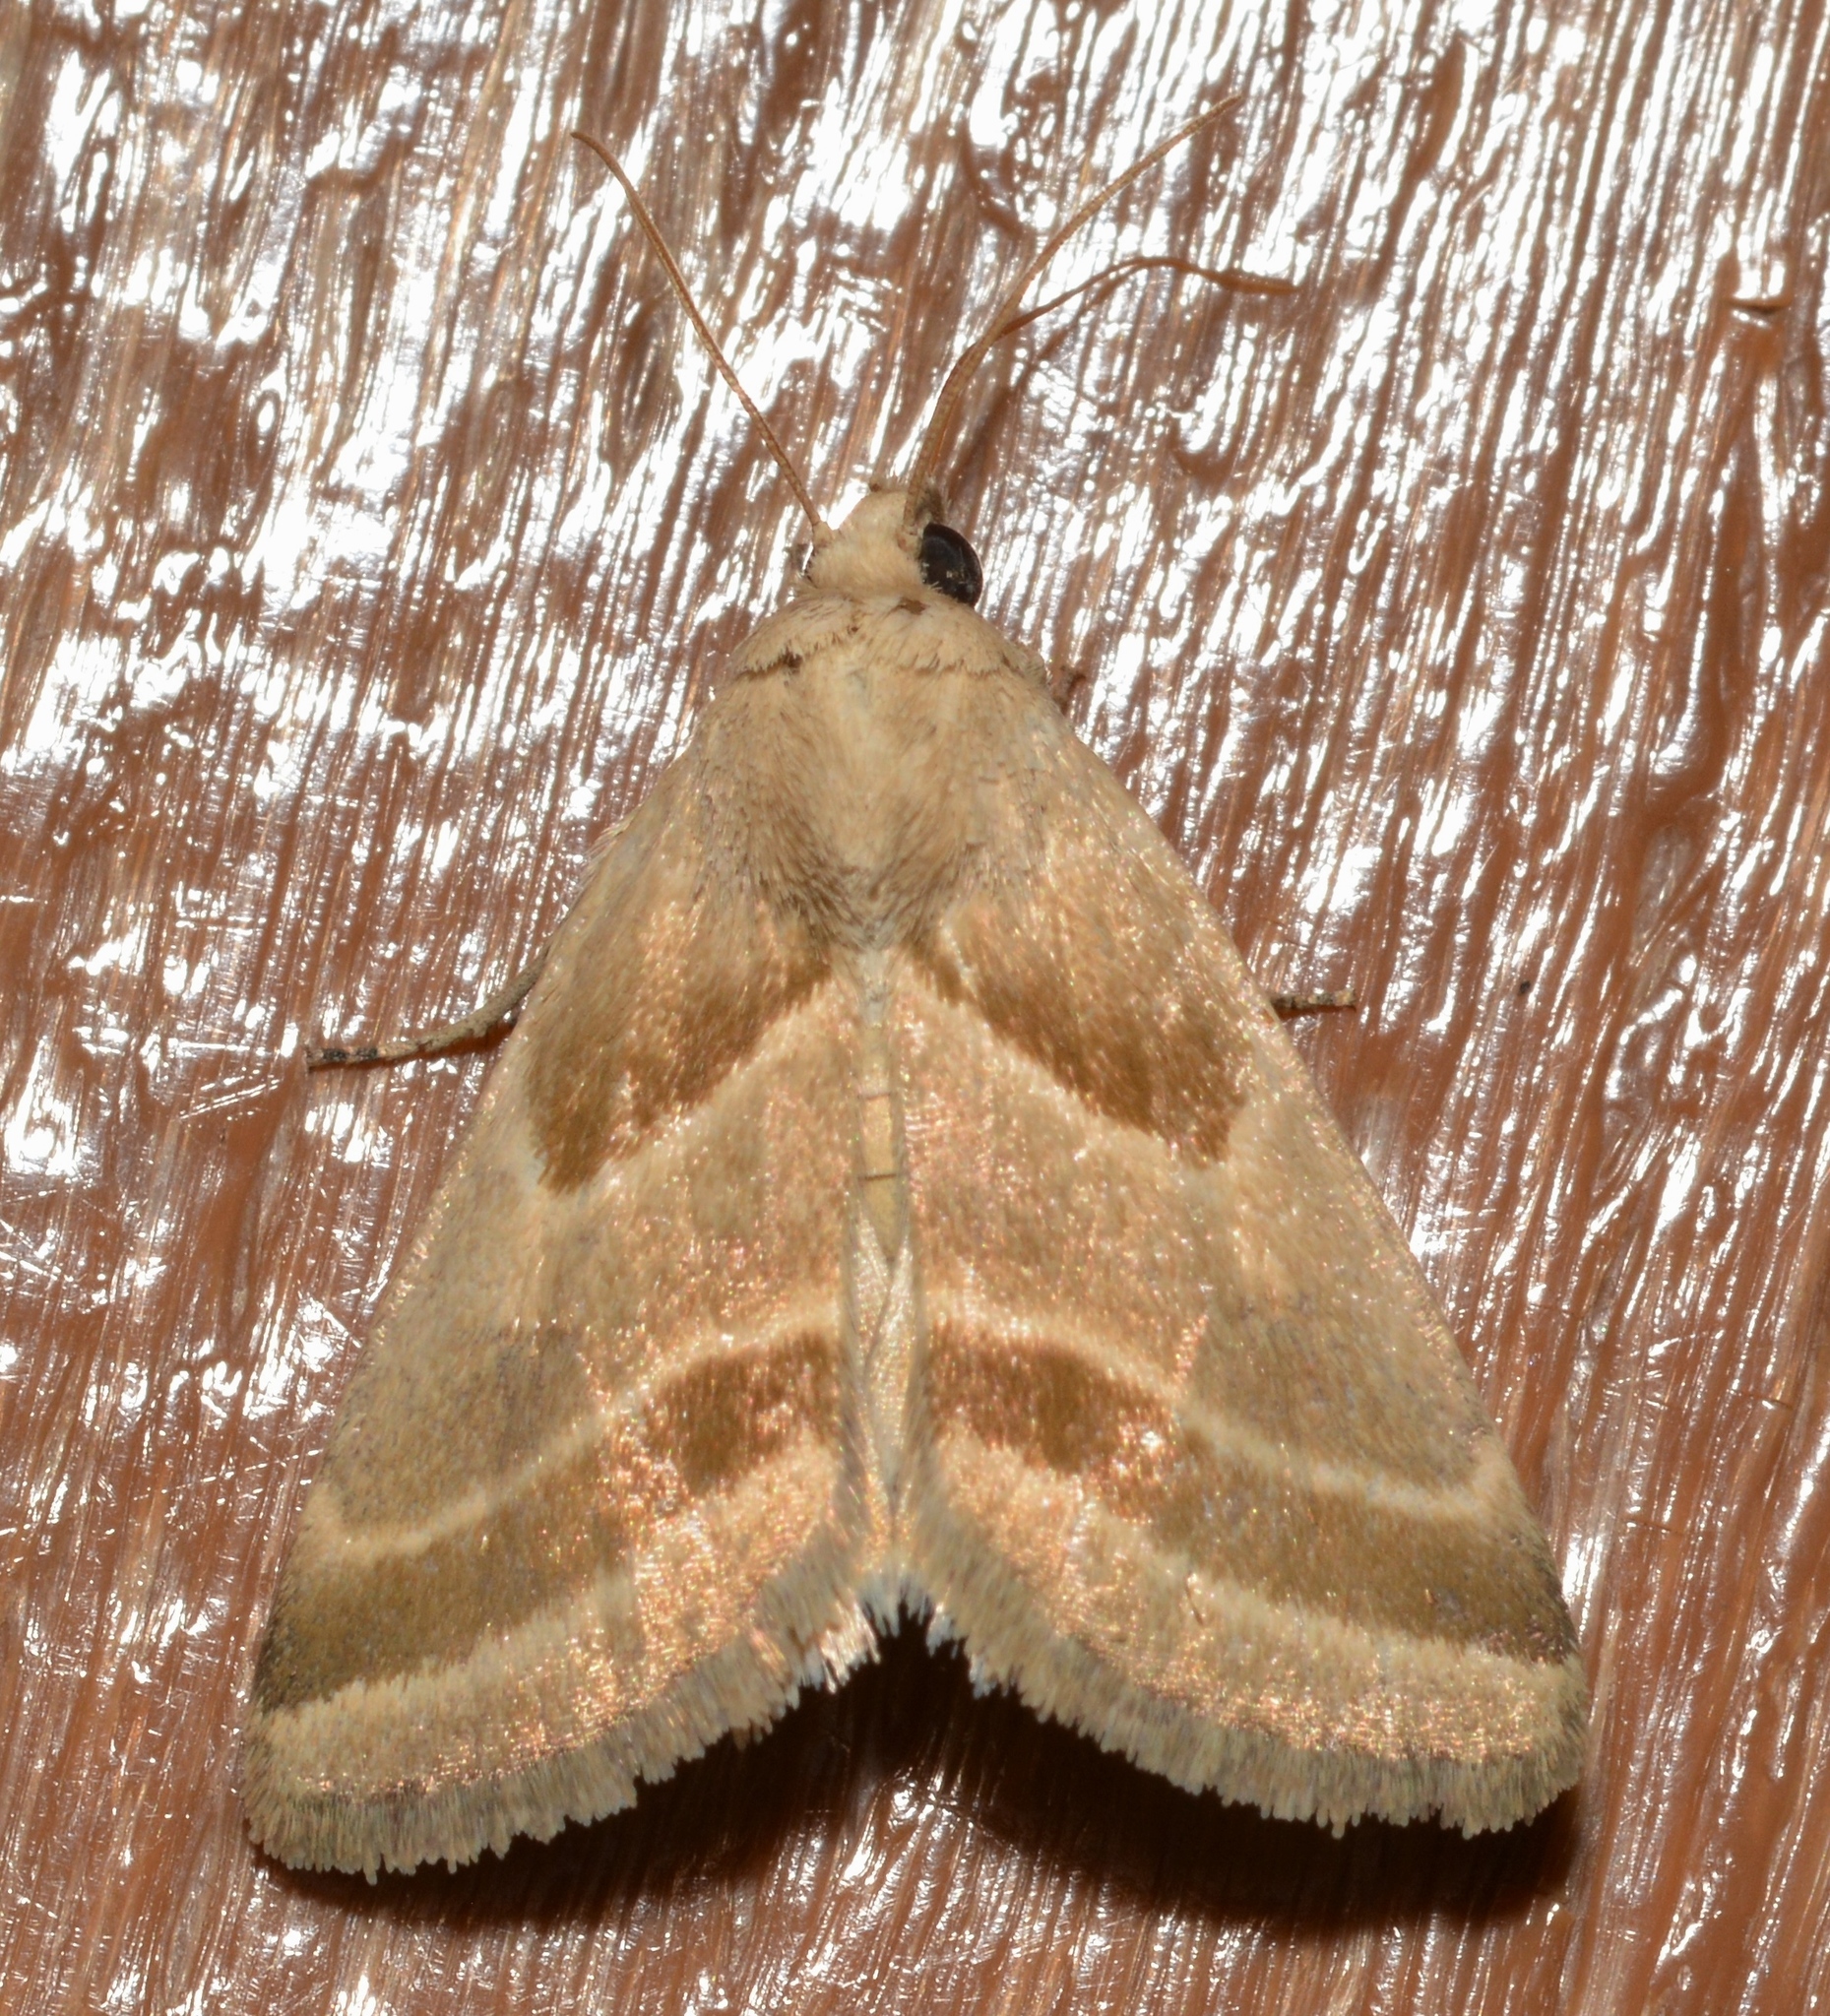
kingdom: Animalia
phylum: Arthropoda
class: Insecta
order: Lepidoptera
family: Noctuidae
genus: Schinia
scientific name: Schinia grandimedia
